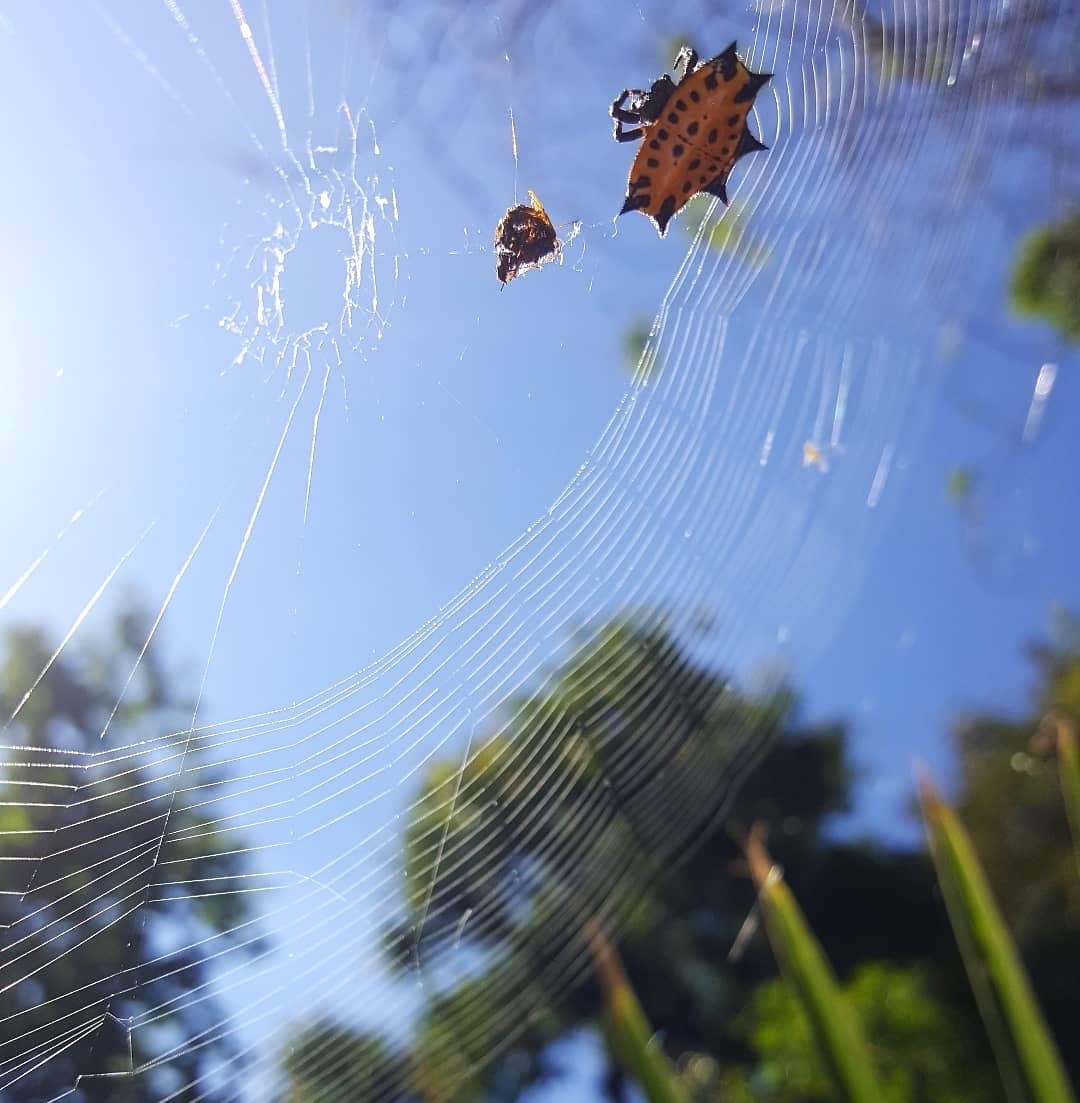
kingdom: Animalia
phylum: Arthropoda
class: Arachnida
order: Araneae
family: Araneidae
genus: Gasteracantha
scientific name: Gasteracantha cancriformis
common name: Orb weavers
